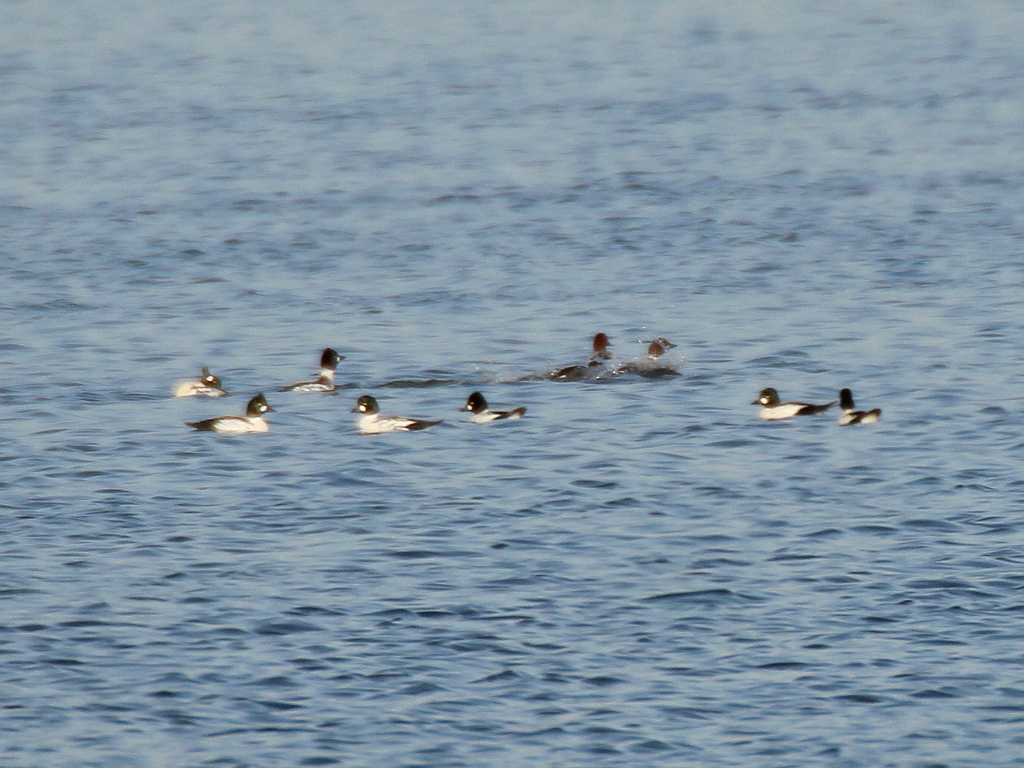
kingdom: Animalia
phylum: Chordata
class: Aves
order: Anseriformes
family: Anatidae
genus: Bucephala
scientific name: Bucephala clangula
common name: Common goldeneye
